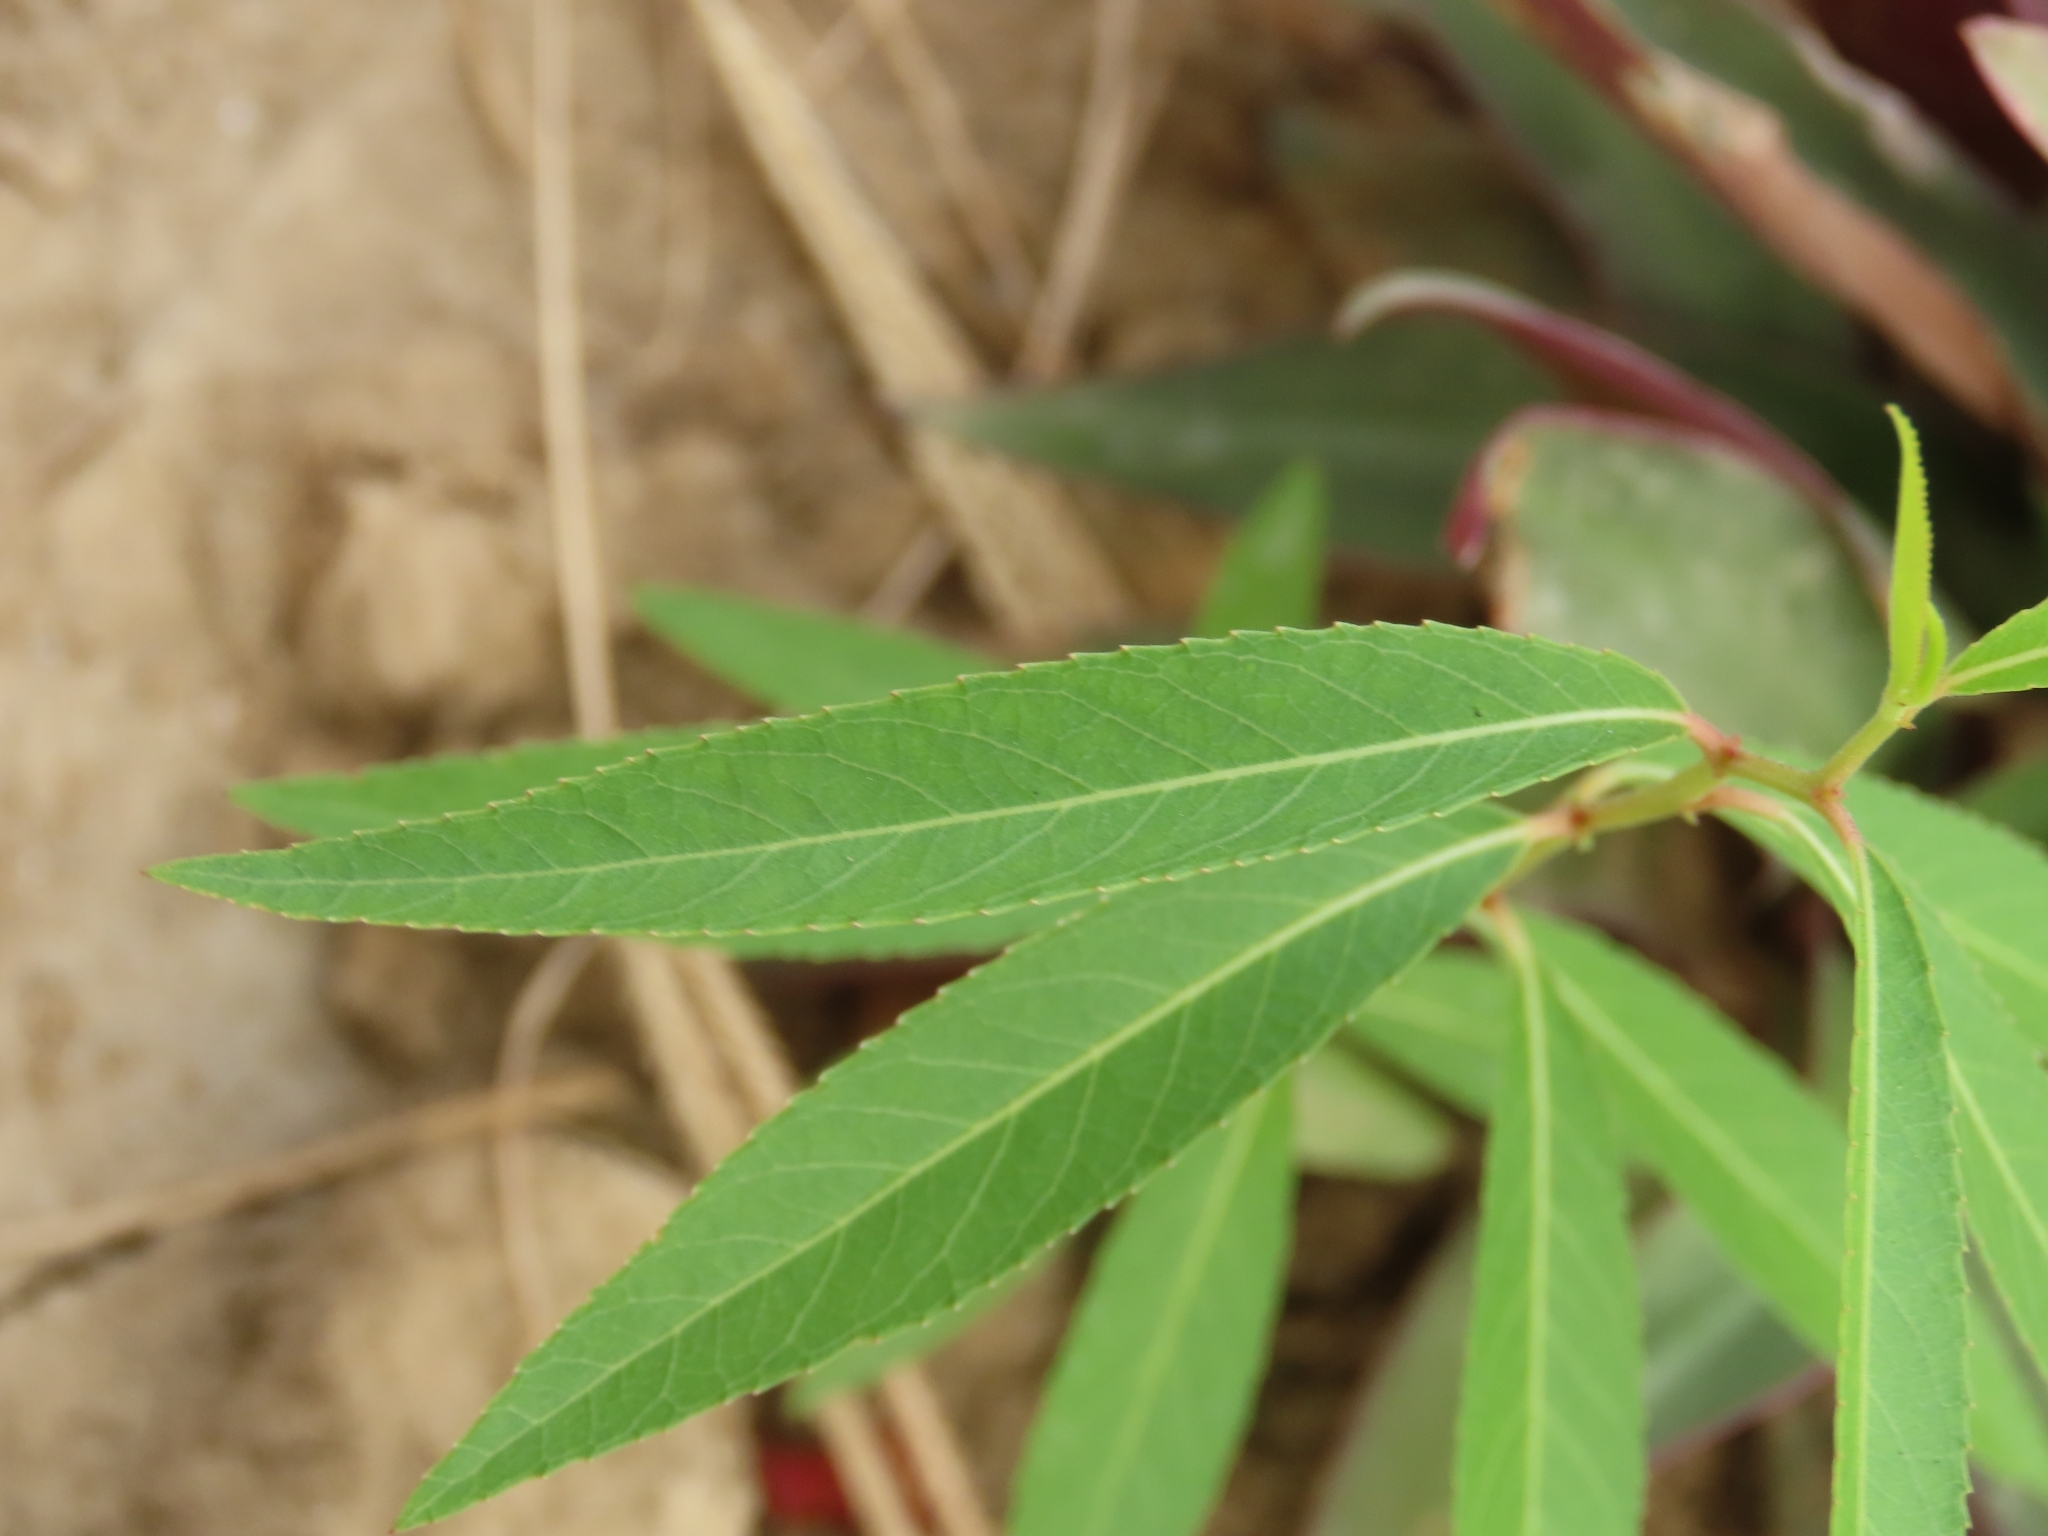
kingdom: Plantae
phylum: Tracheophyta
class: Magnoliopsida
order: Malpighiales
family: Salicaceae
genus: Salix
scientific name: Salix mesnyi
